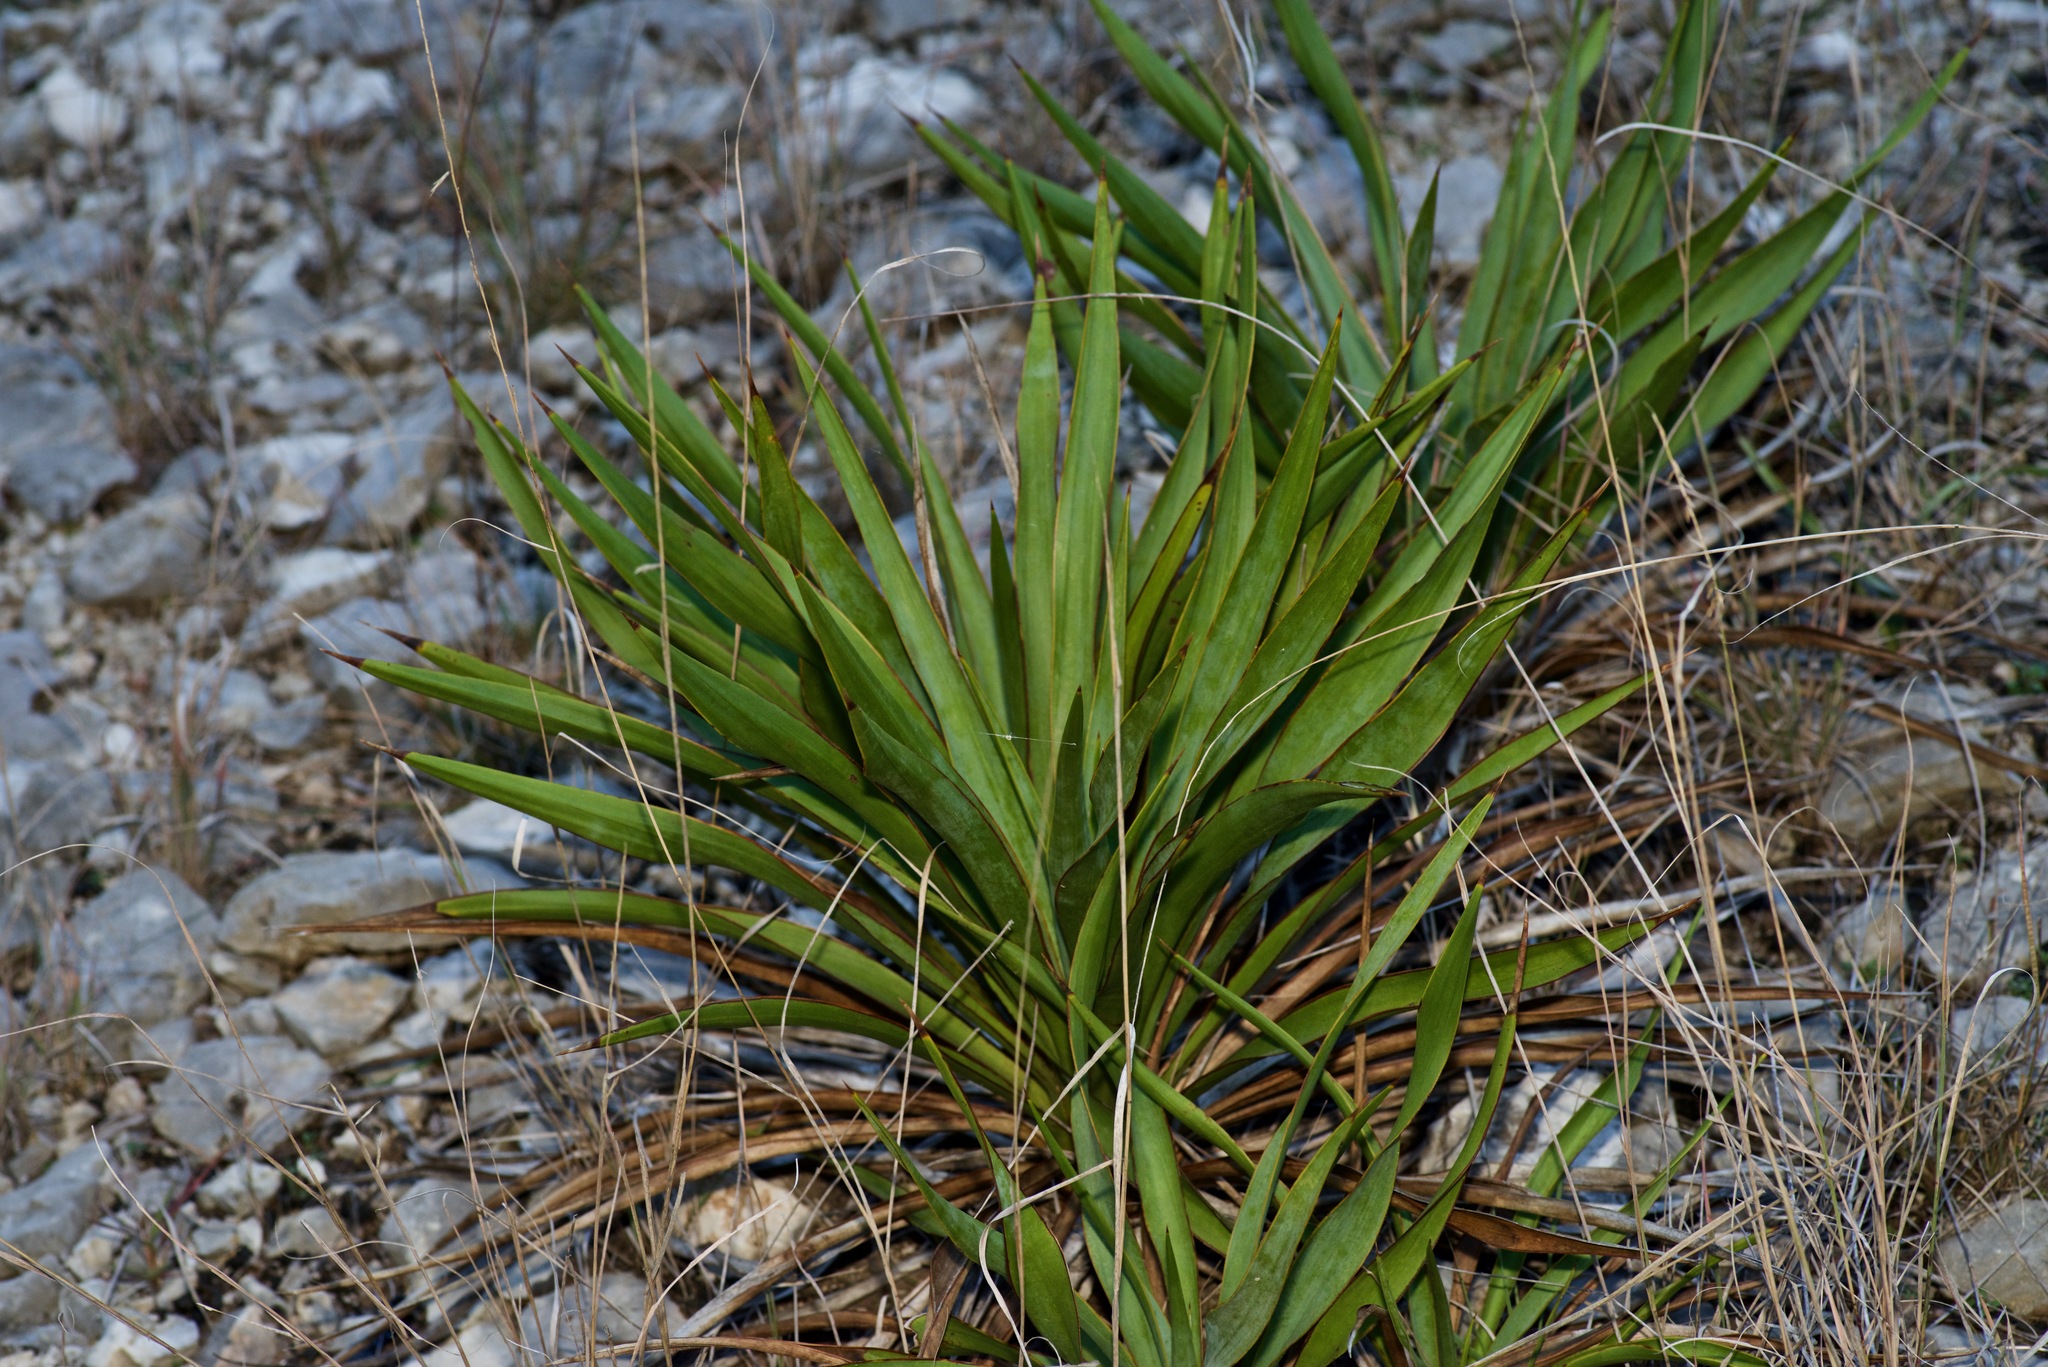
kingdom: Plantae
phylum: Tracheophyta
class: Liliopsida
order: Asparagales
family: Asparagaceae
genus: Yucca
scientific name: Yucca rupicola
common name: Twisted-leaf spanish-dagger
